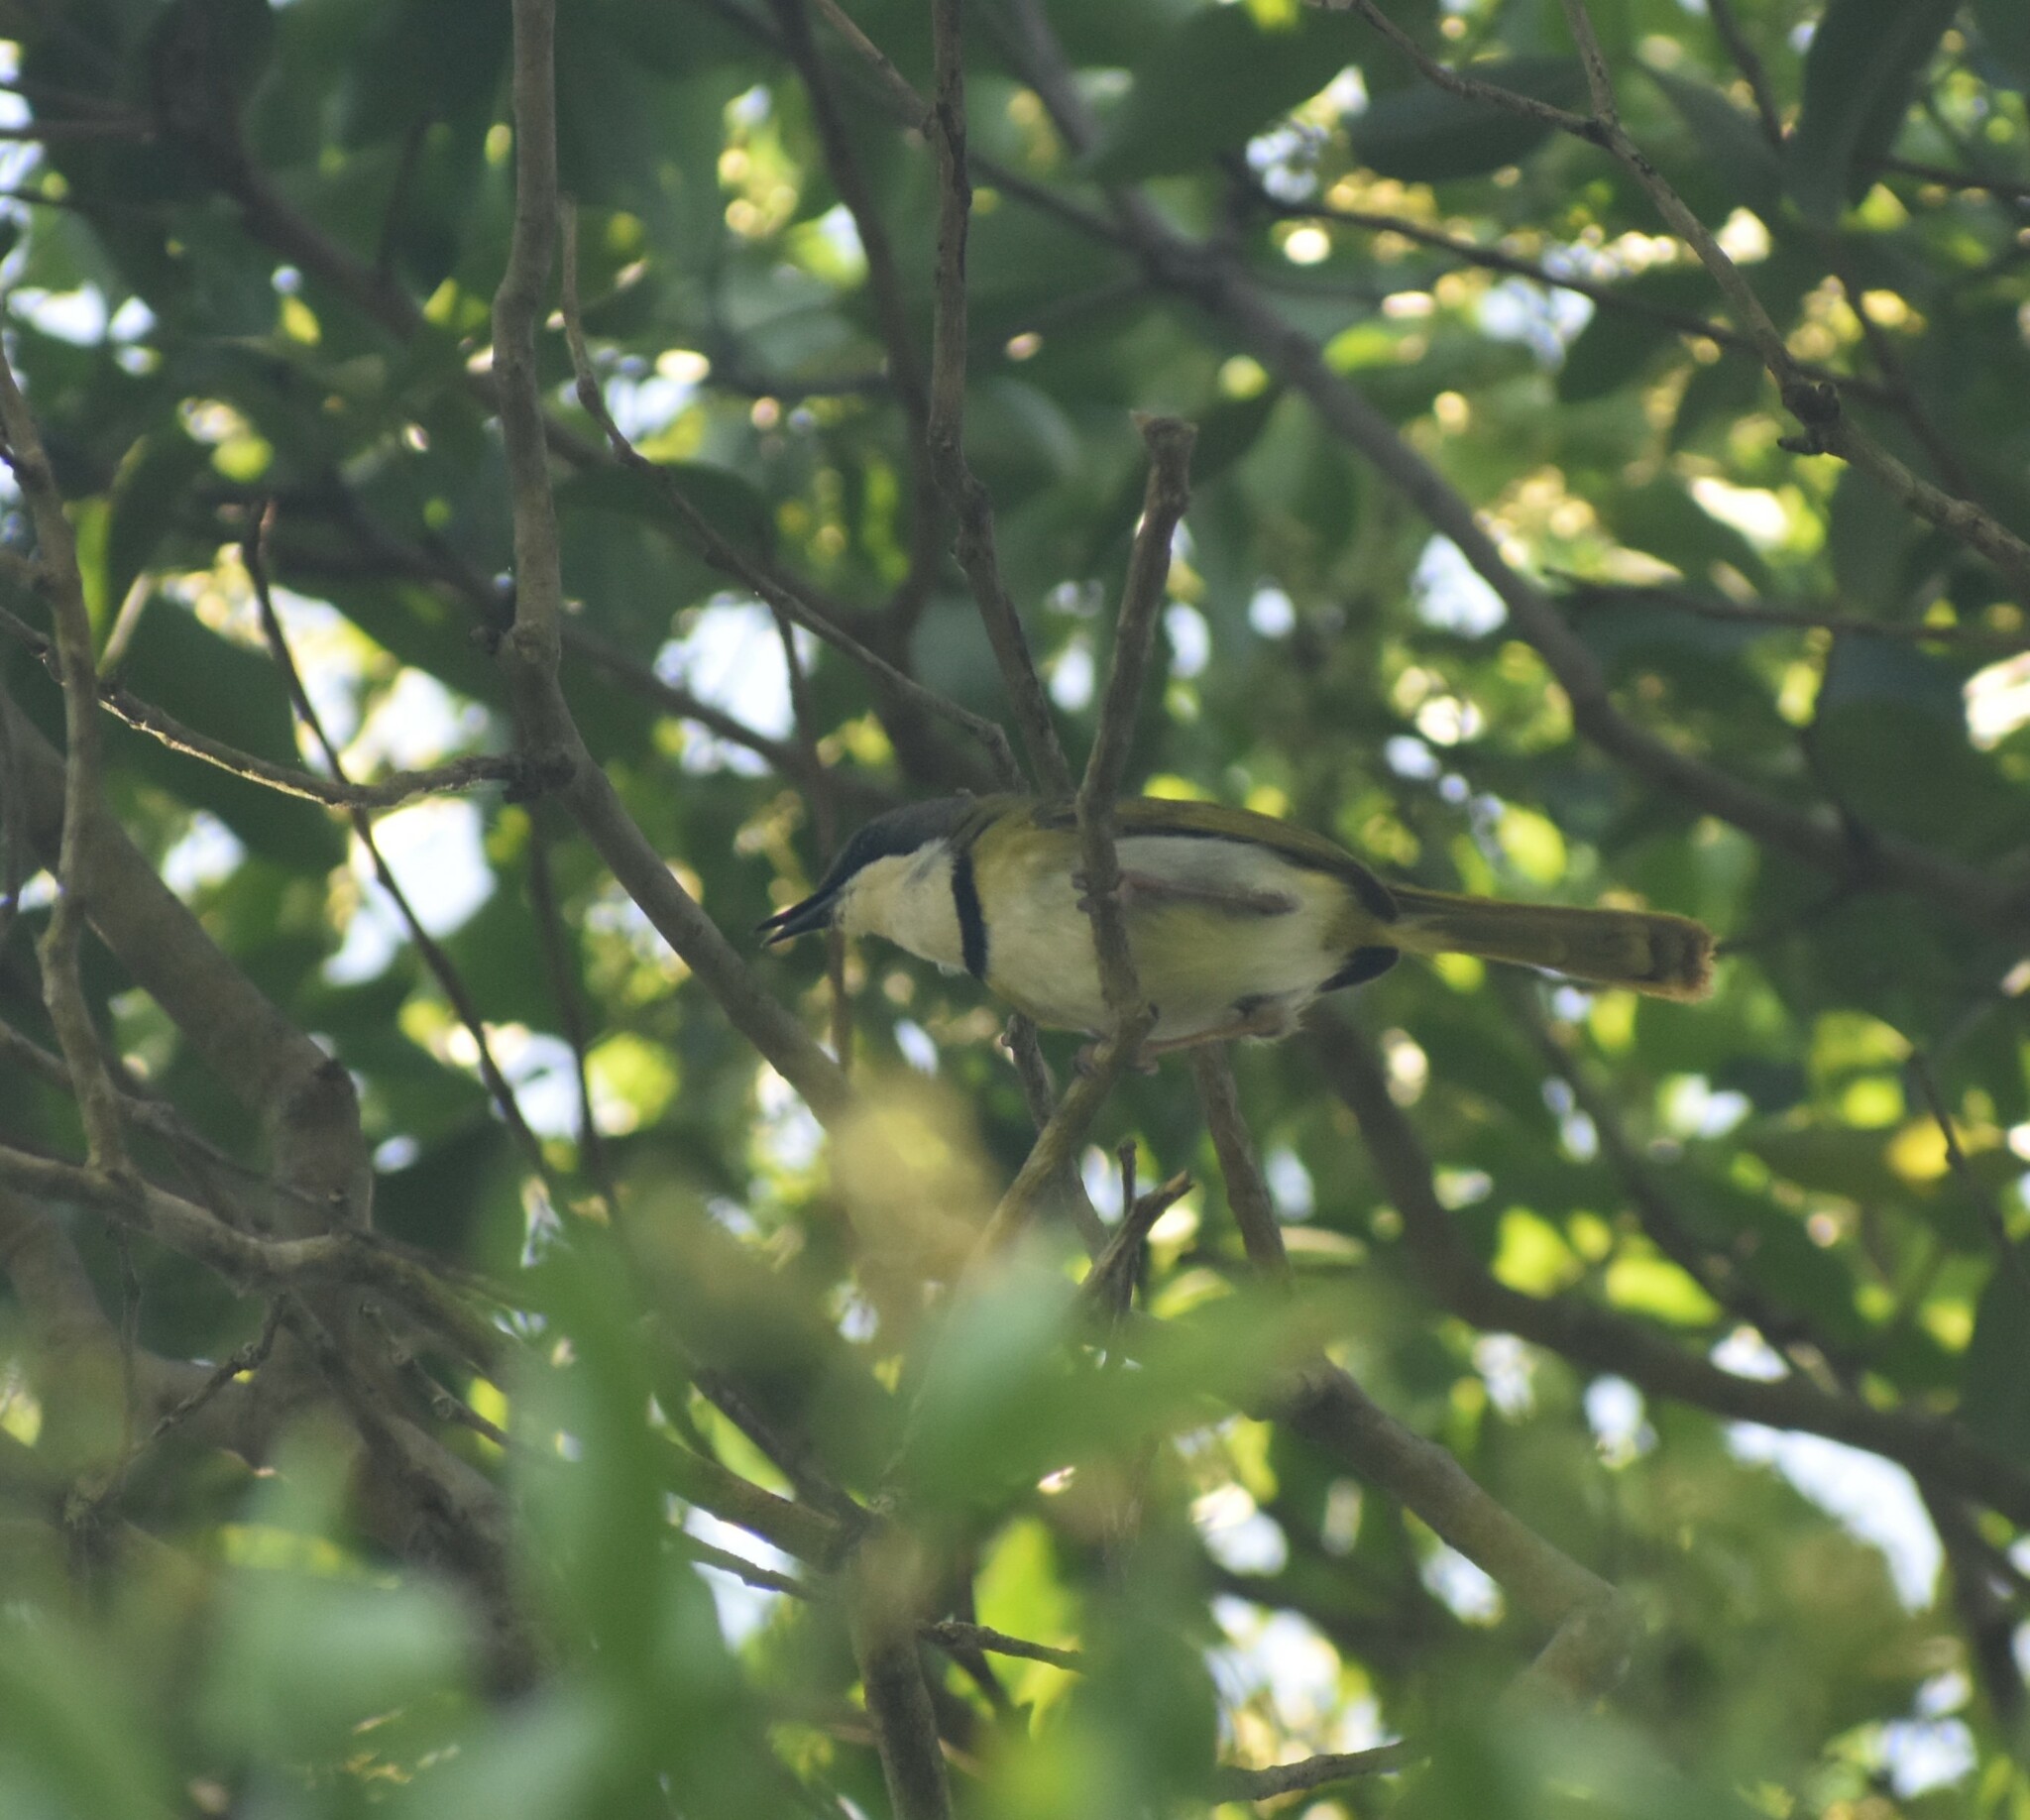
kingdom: Animalia
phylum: Chordata
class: Aves
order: Passeriformes
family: Cisticolidae
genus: Apalis
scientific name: Apalis ruddi
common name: Rudd's apalis
